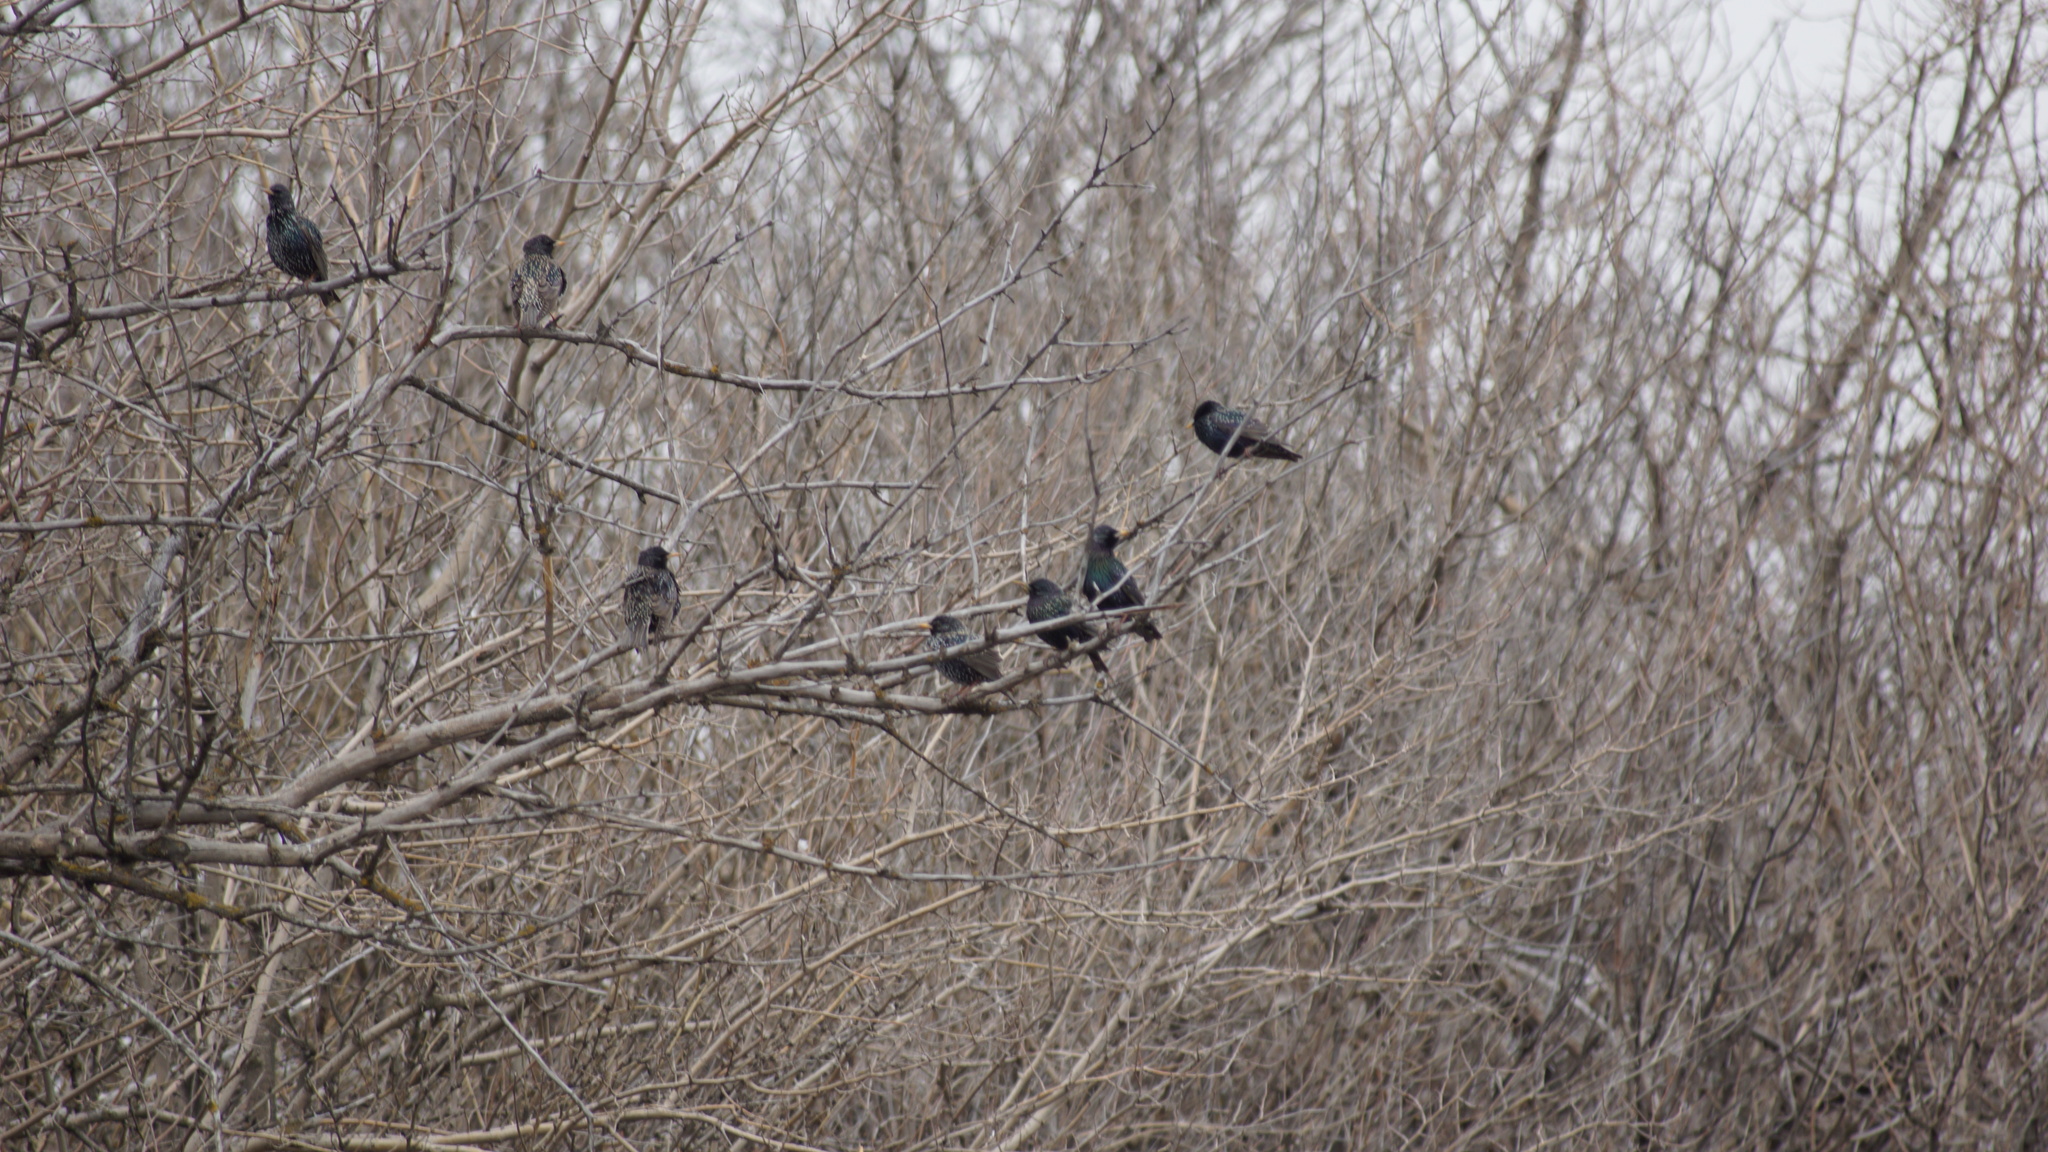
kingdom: Animalia
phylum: Chordata
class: Aves
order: Passeriformes
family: Sturnidae
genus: Sturnus
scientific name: Sturnus vulgaris
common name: Common starling
